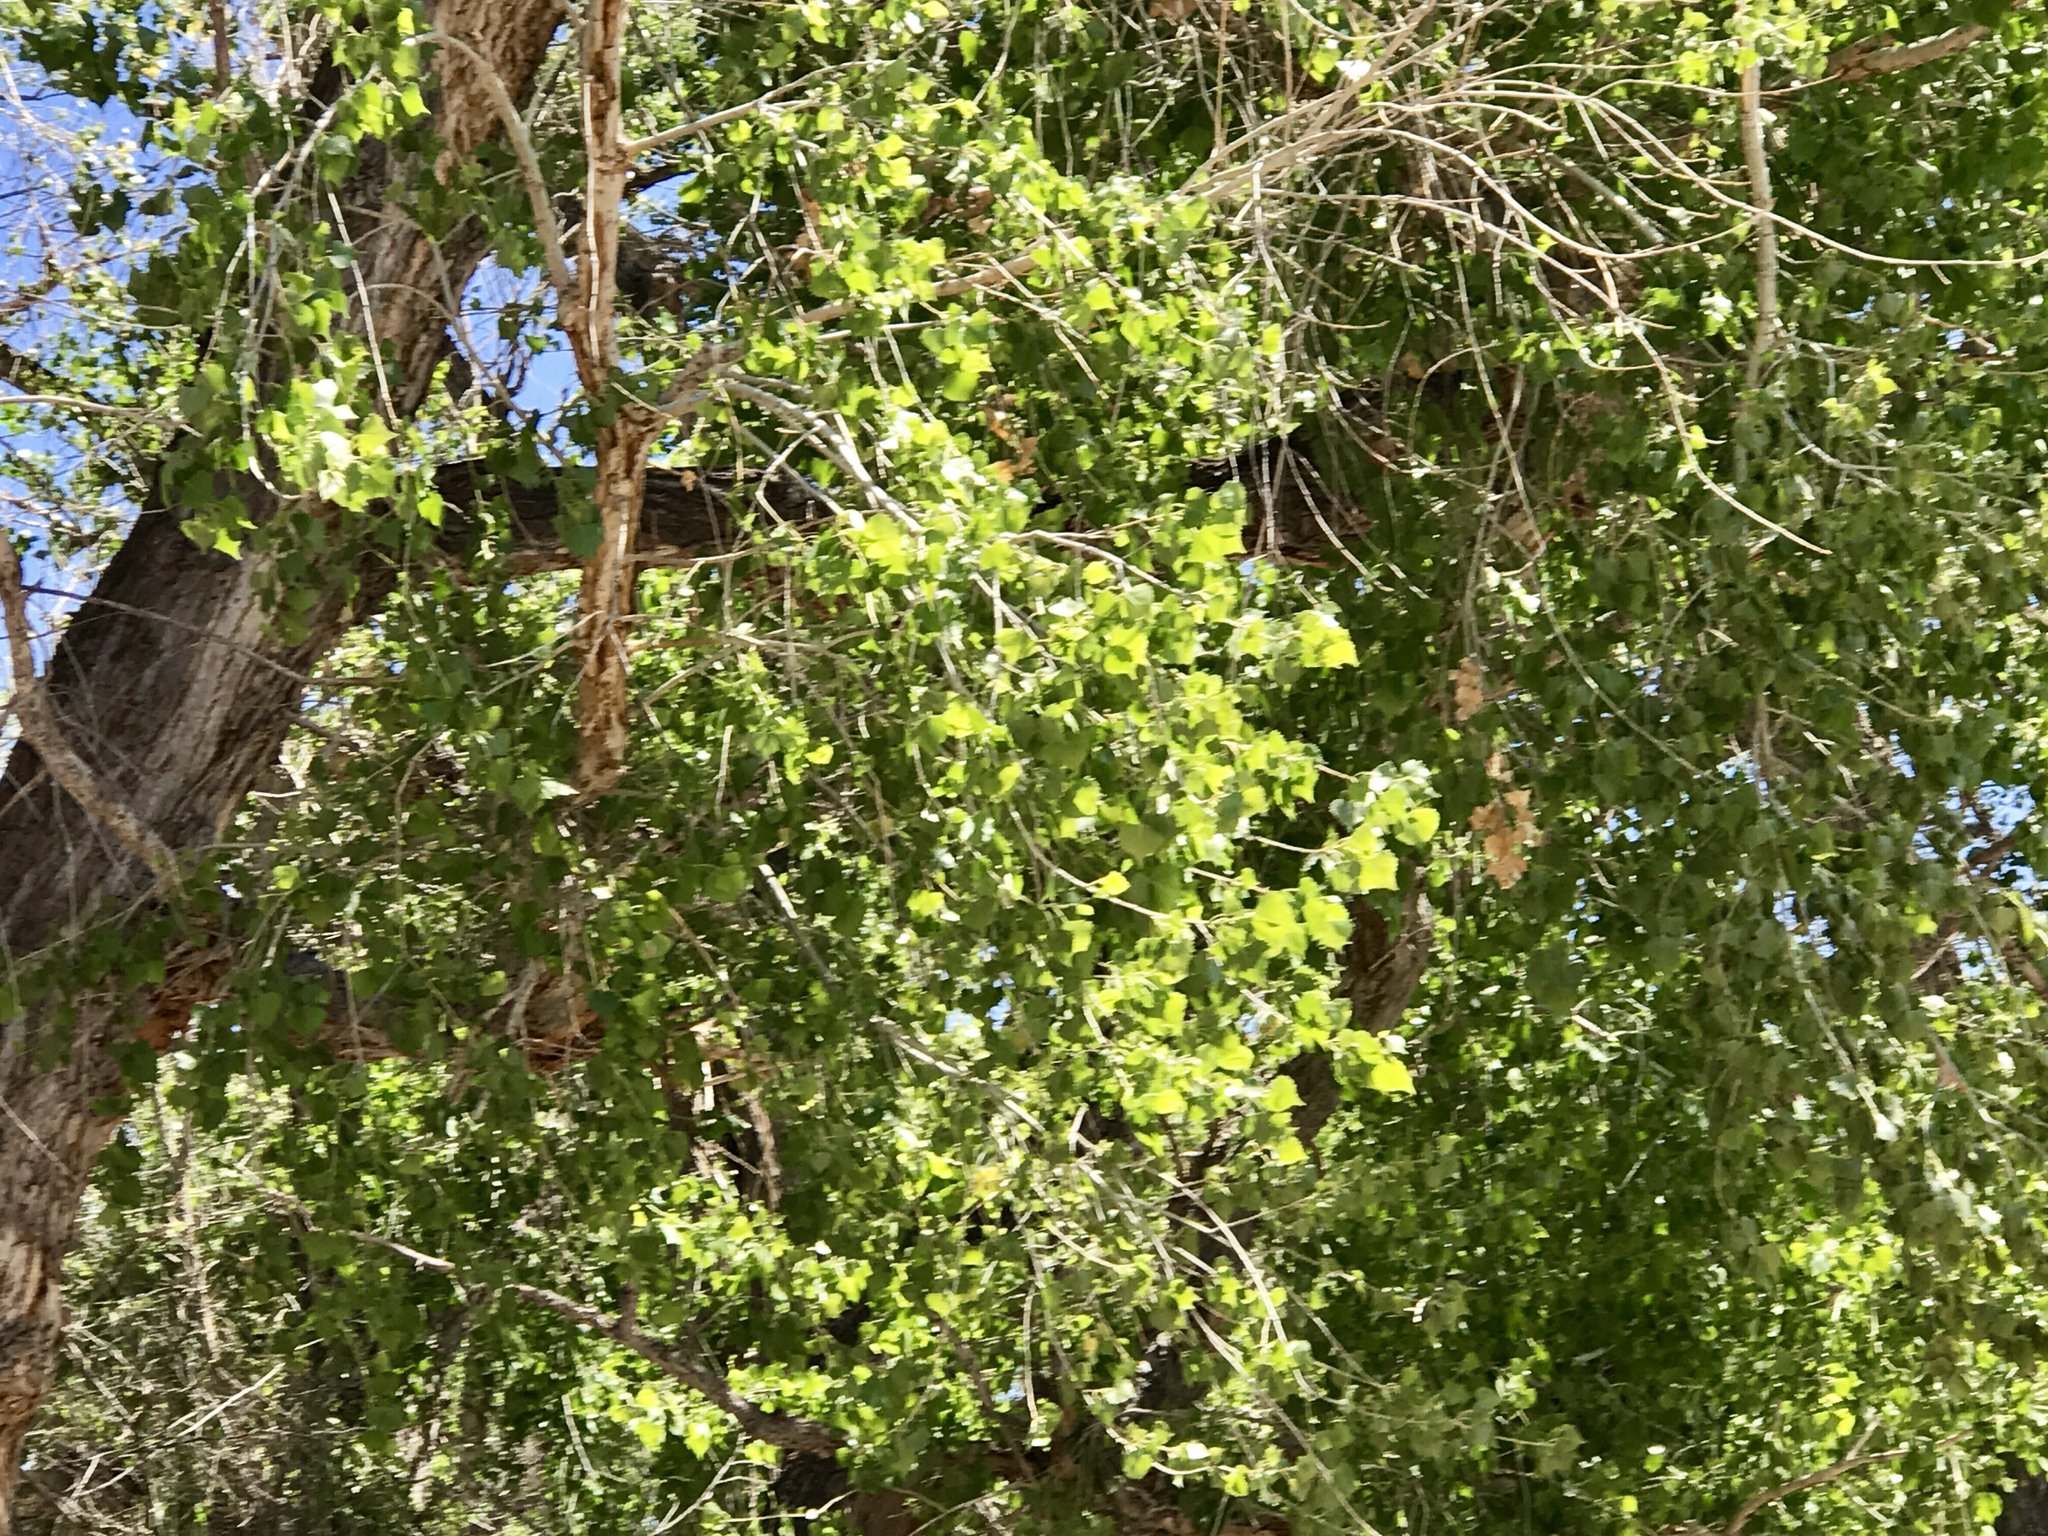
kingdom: Plantae
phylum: Tracheophyta
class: Magnoliopsida
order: Malpighiales
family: Salicaceae
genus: Populus
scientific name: Populus fremontii
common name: Fremont's cottonwood
